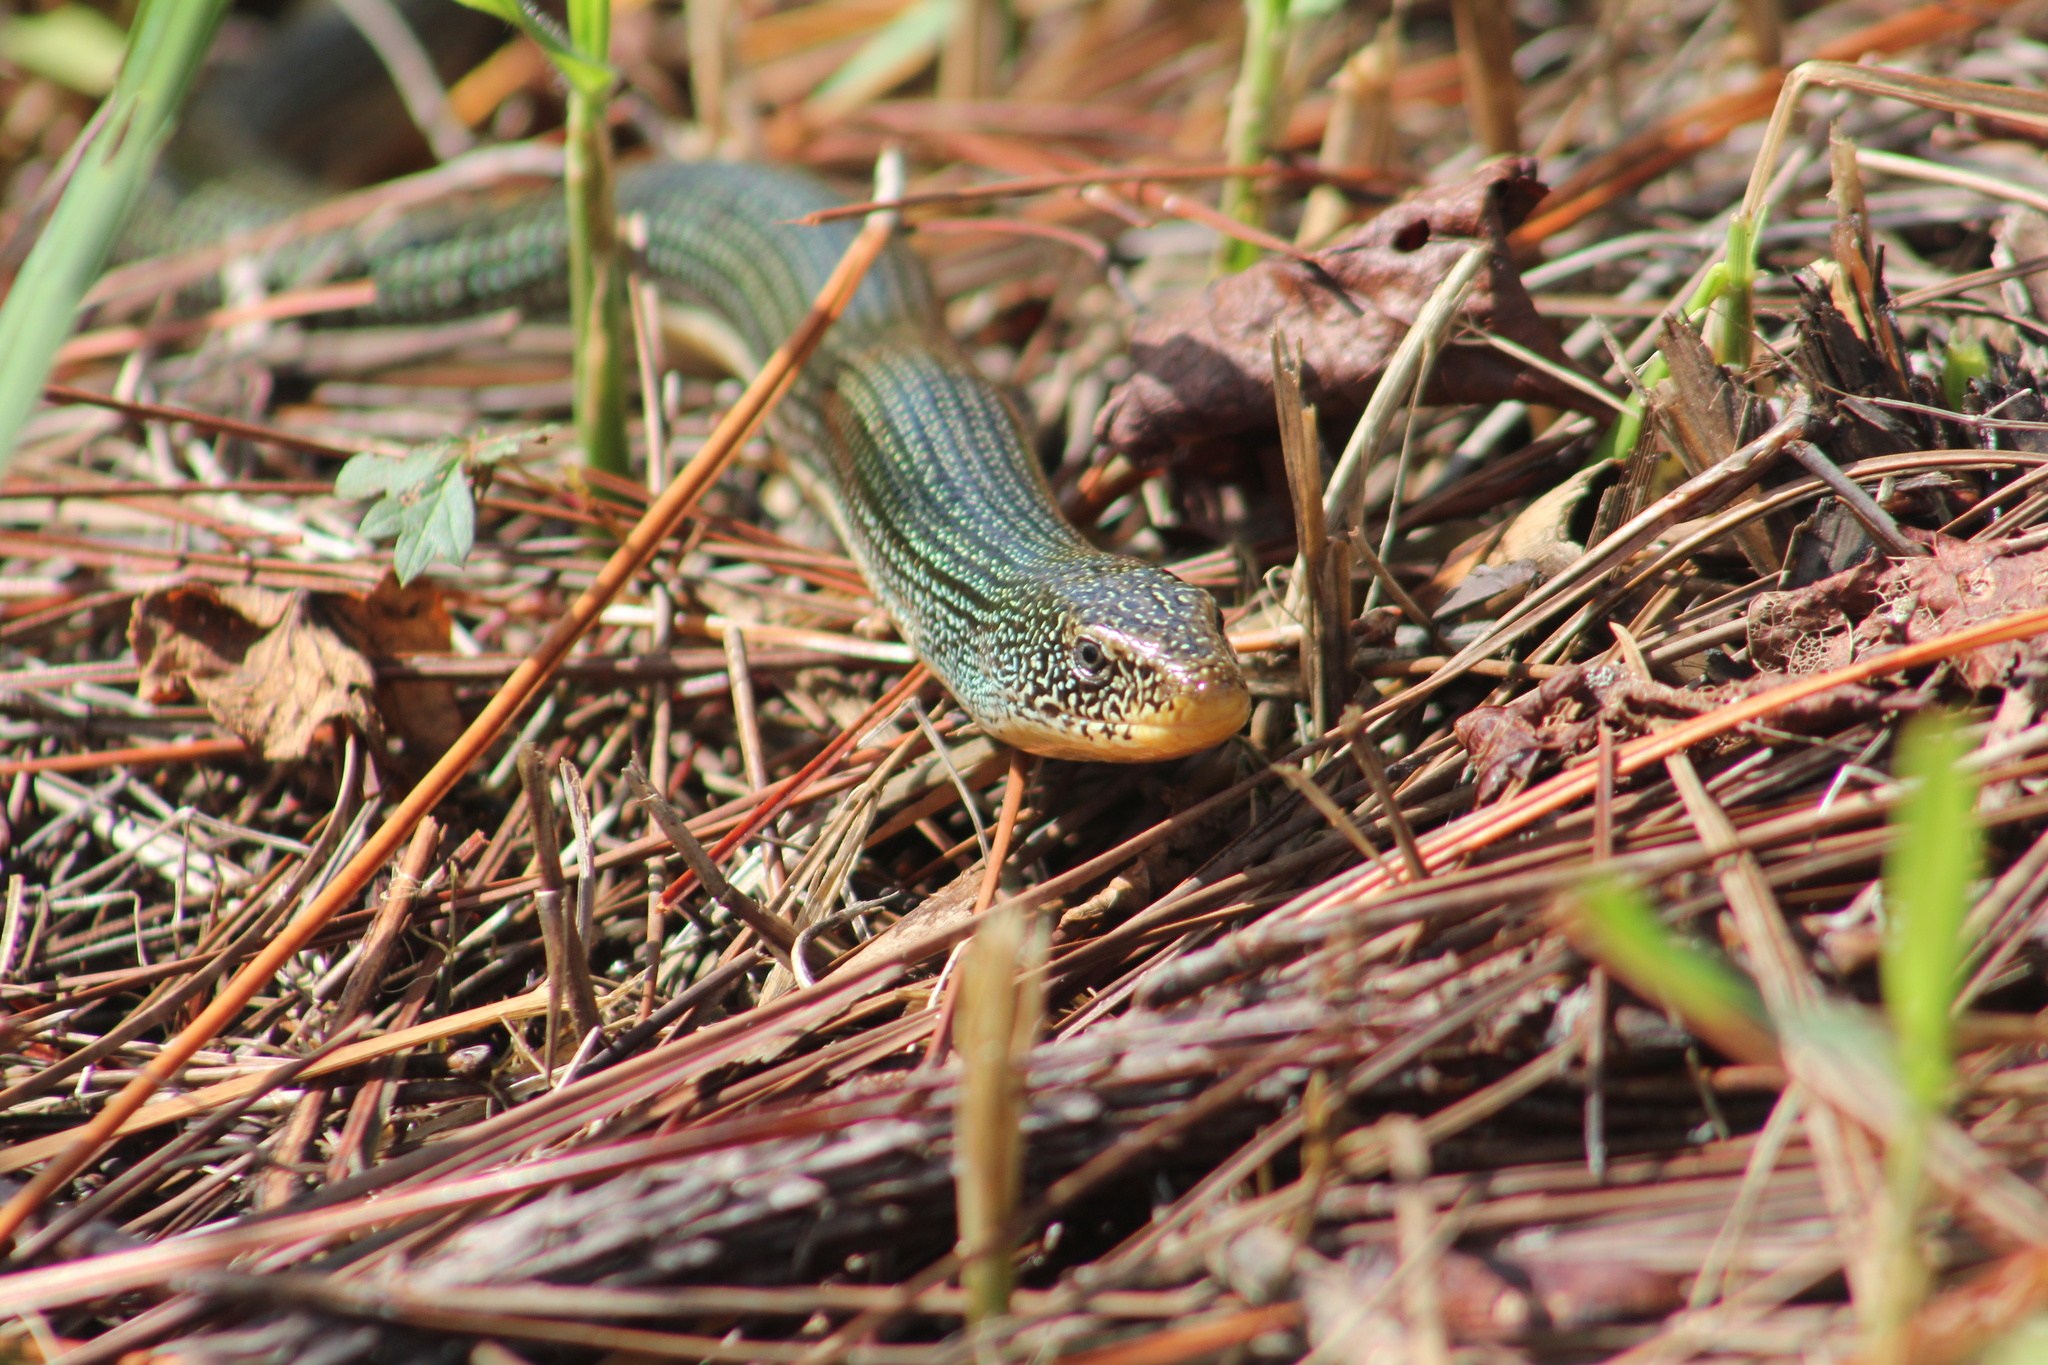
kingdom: Animalia
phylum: Chordata
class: Squamata
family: Anguidae
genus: Ophisaurus
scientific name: Ophisaurus ventralis
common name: Eastern glass lizard
